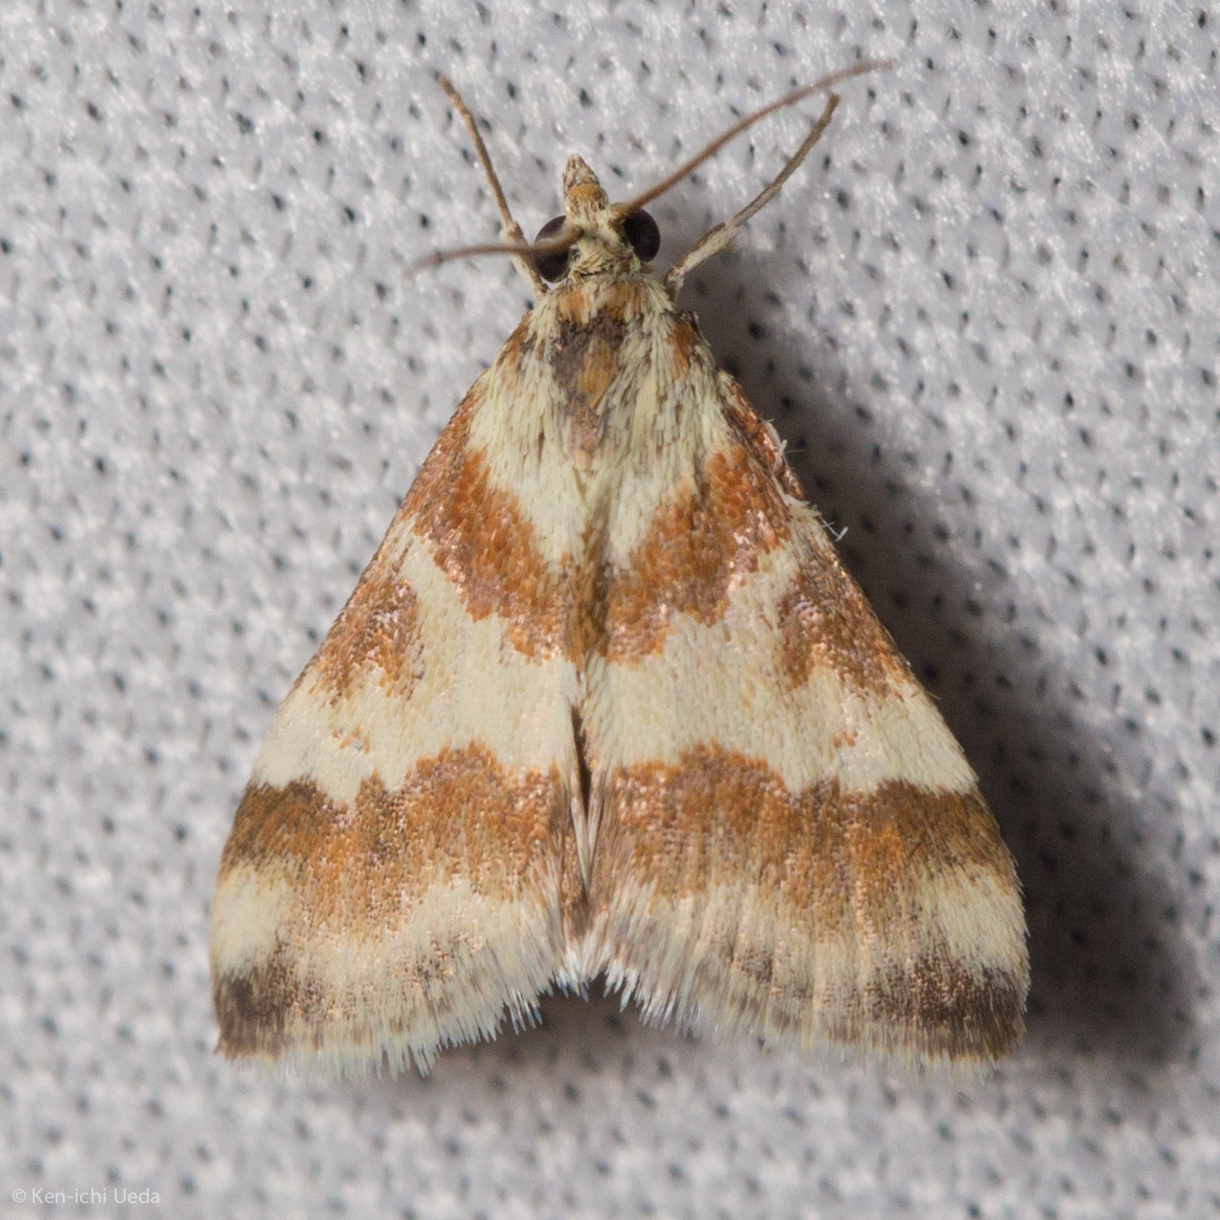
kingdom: Animalia
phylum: Arthropoda
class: Insecta
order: Lepidoptera
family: Crambidae
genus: Noctuelia
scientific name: Noctuelia Mimoschinia rufofascialis
